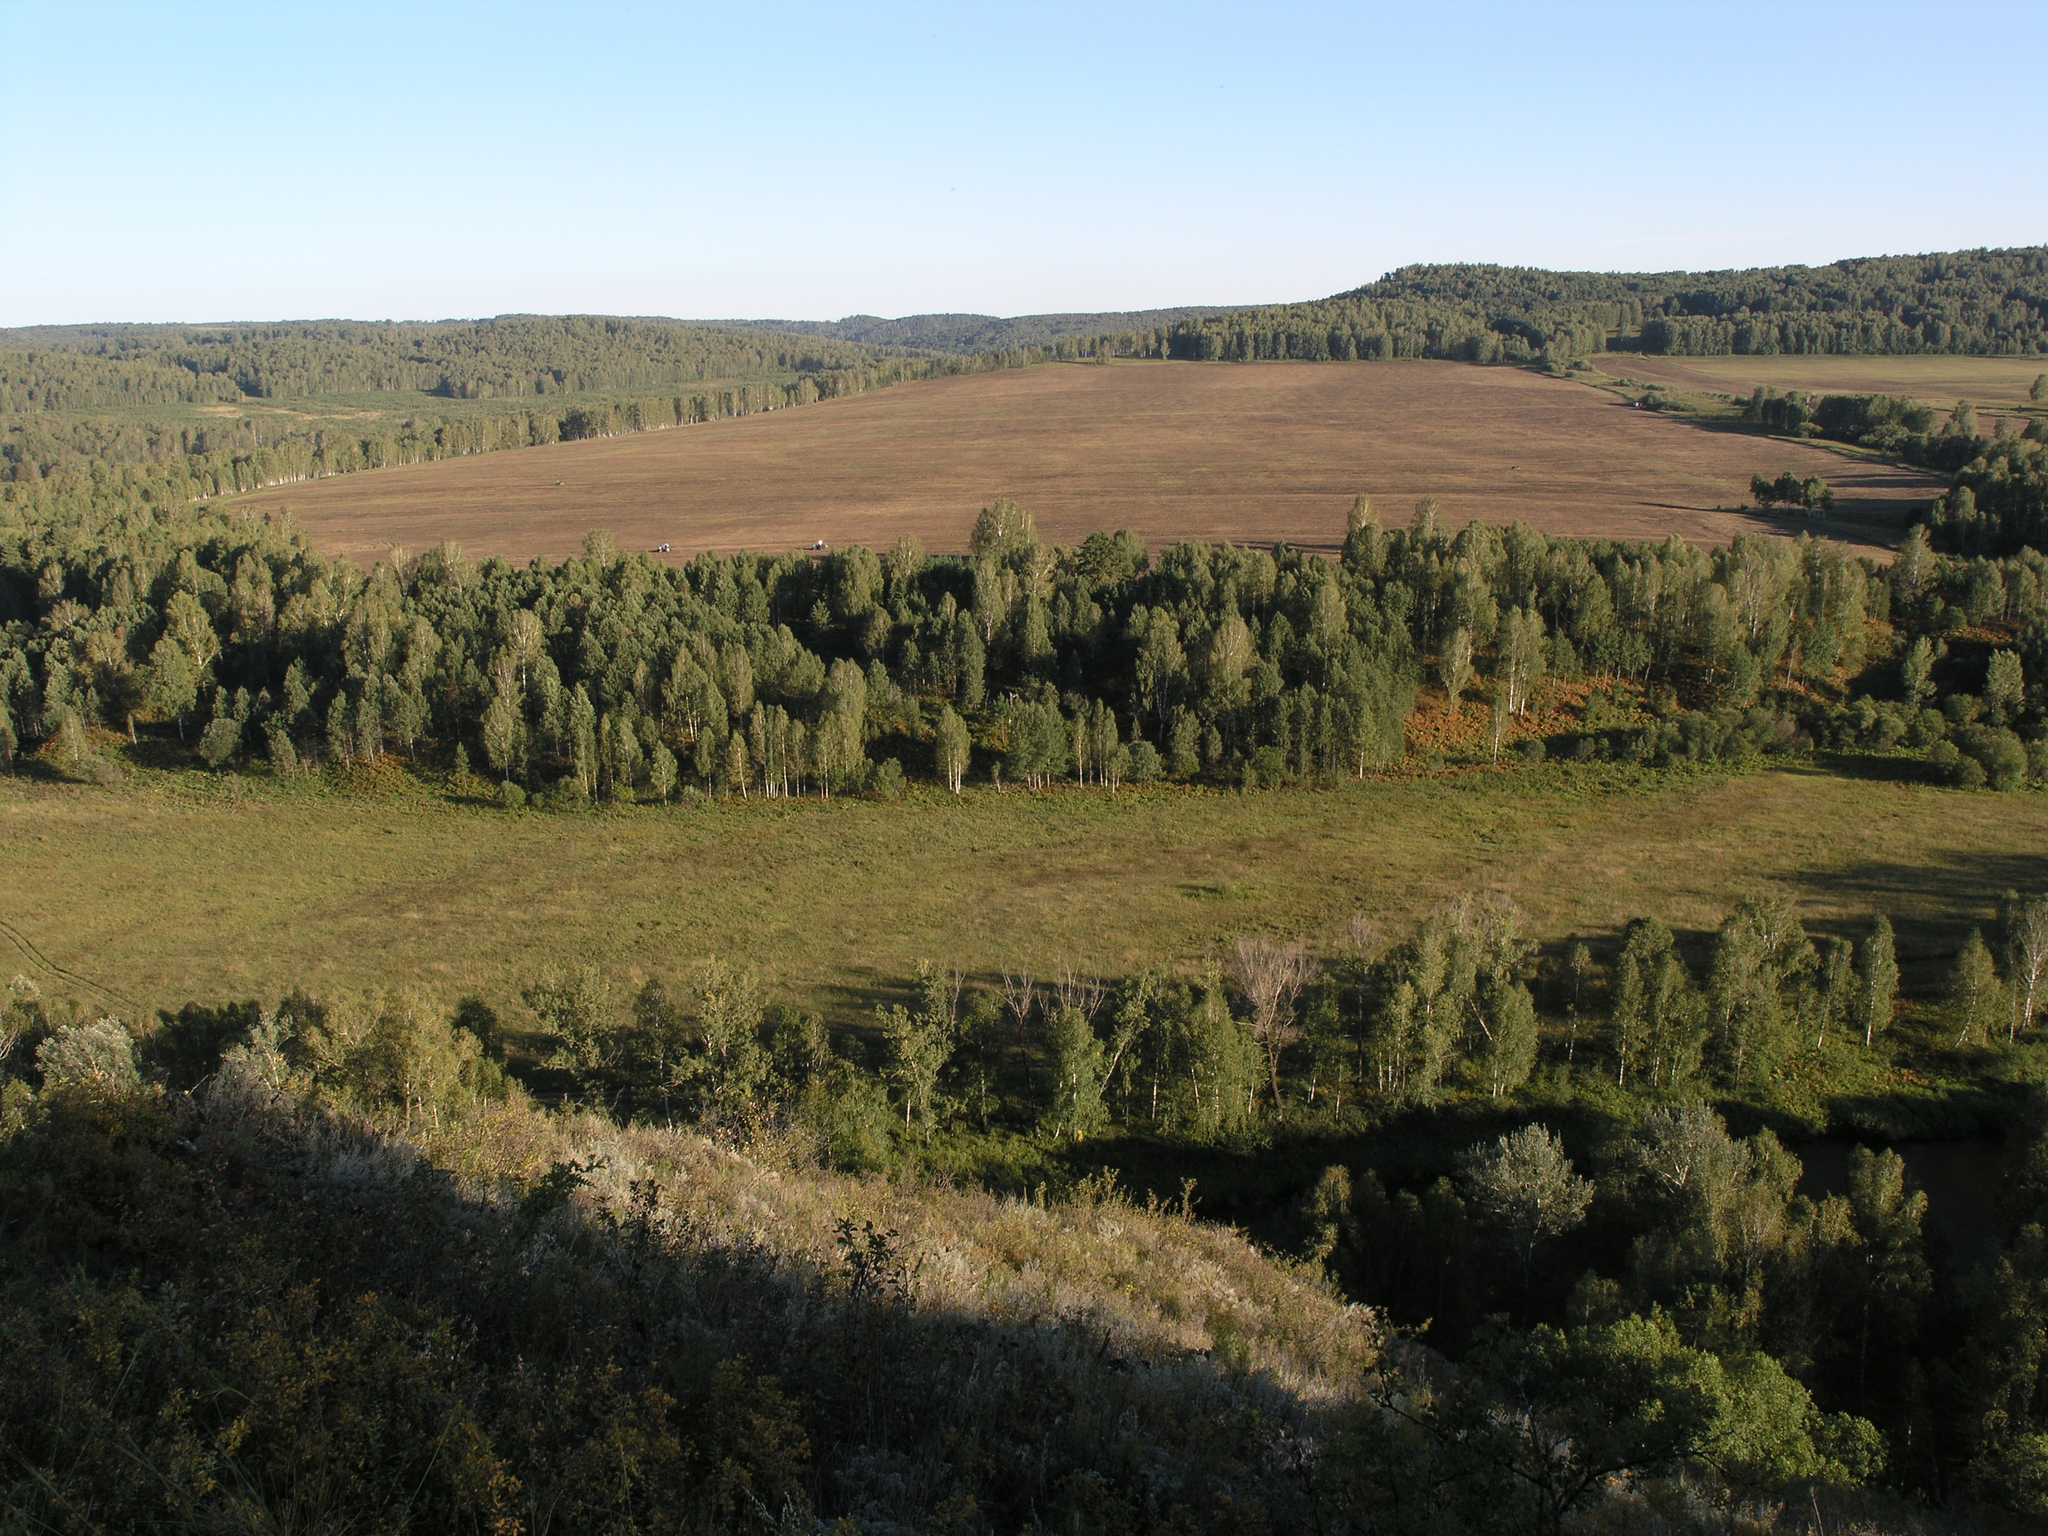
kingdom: Plantae
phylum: Tracheophyta
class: Magnoliopsida
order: Fagales
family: Betulaceae
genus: Betula
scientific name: Betula pendula
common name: Silver birch
